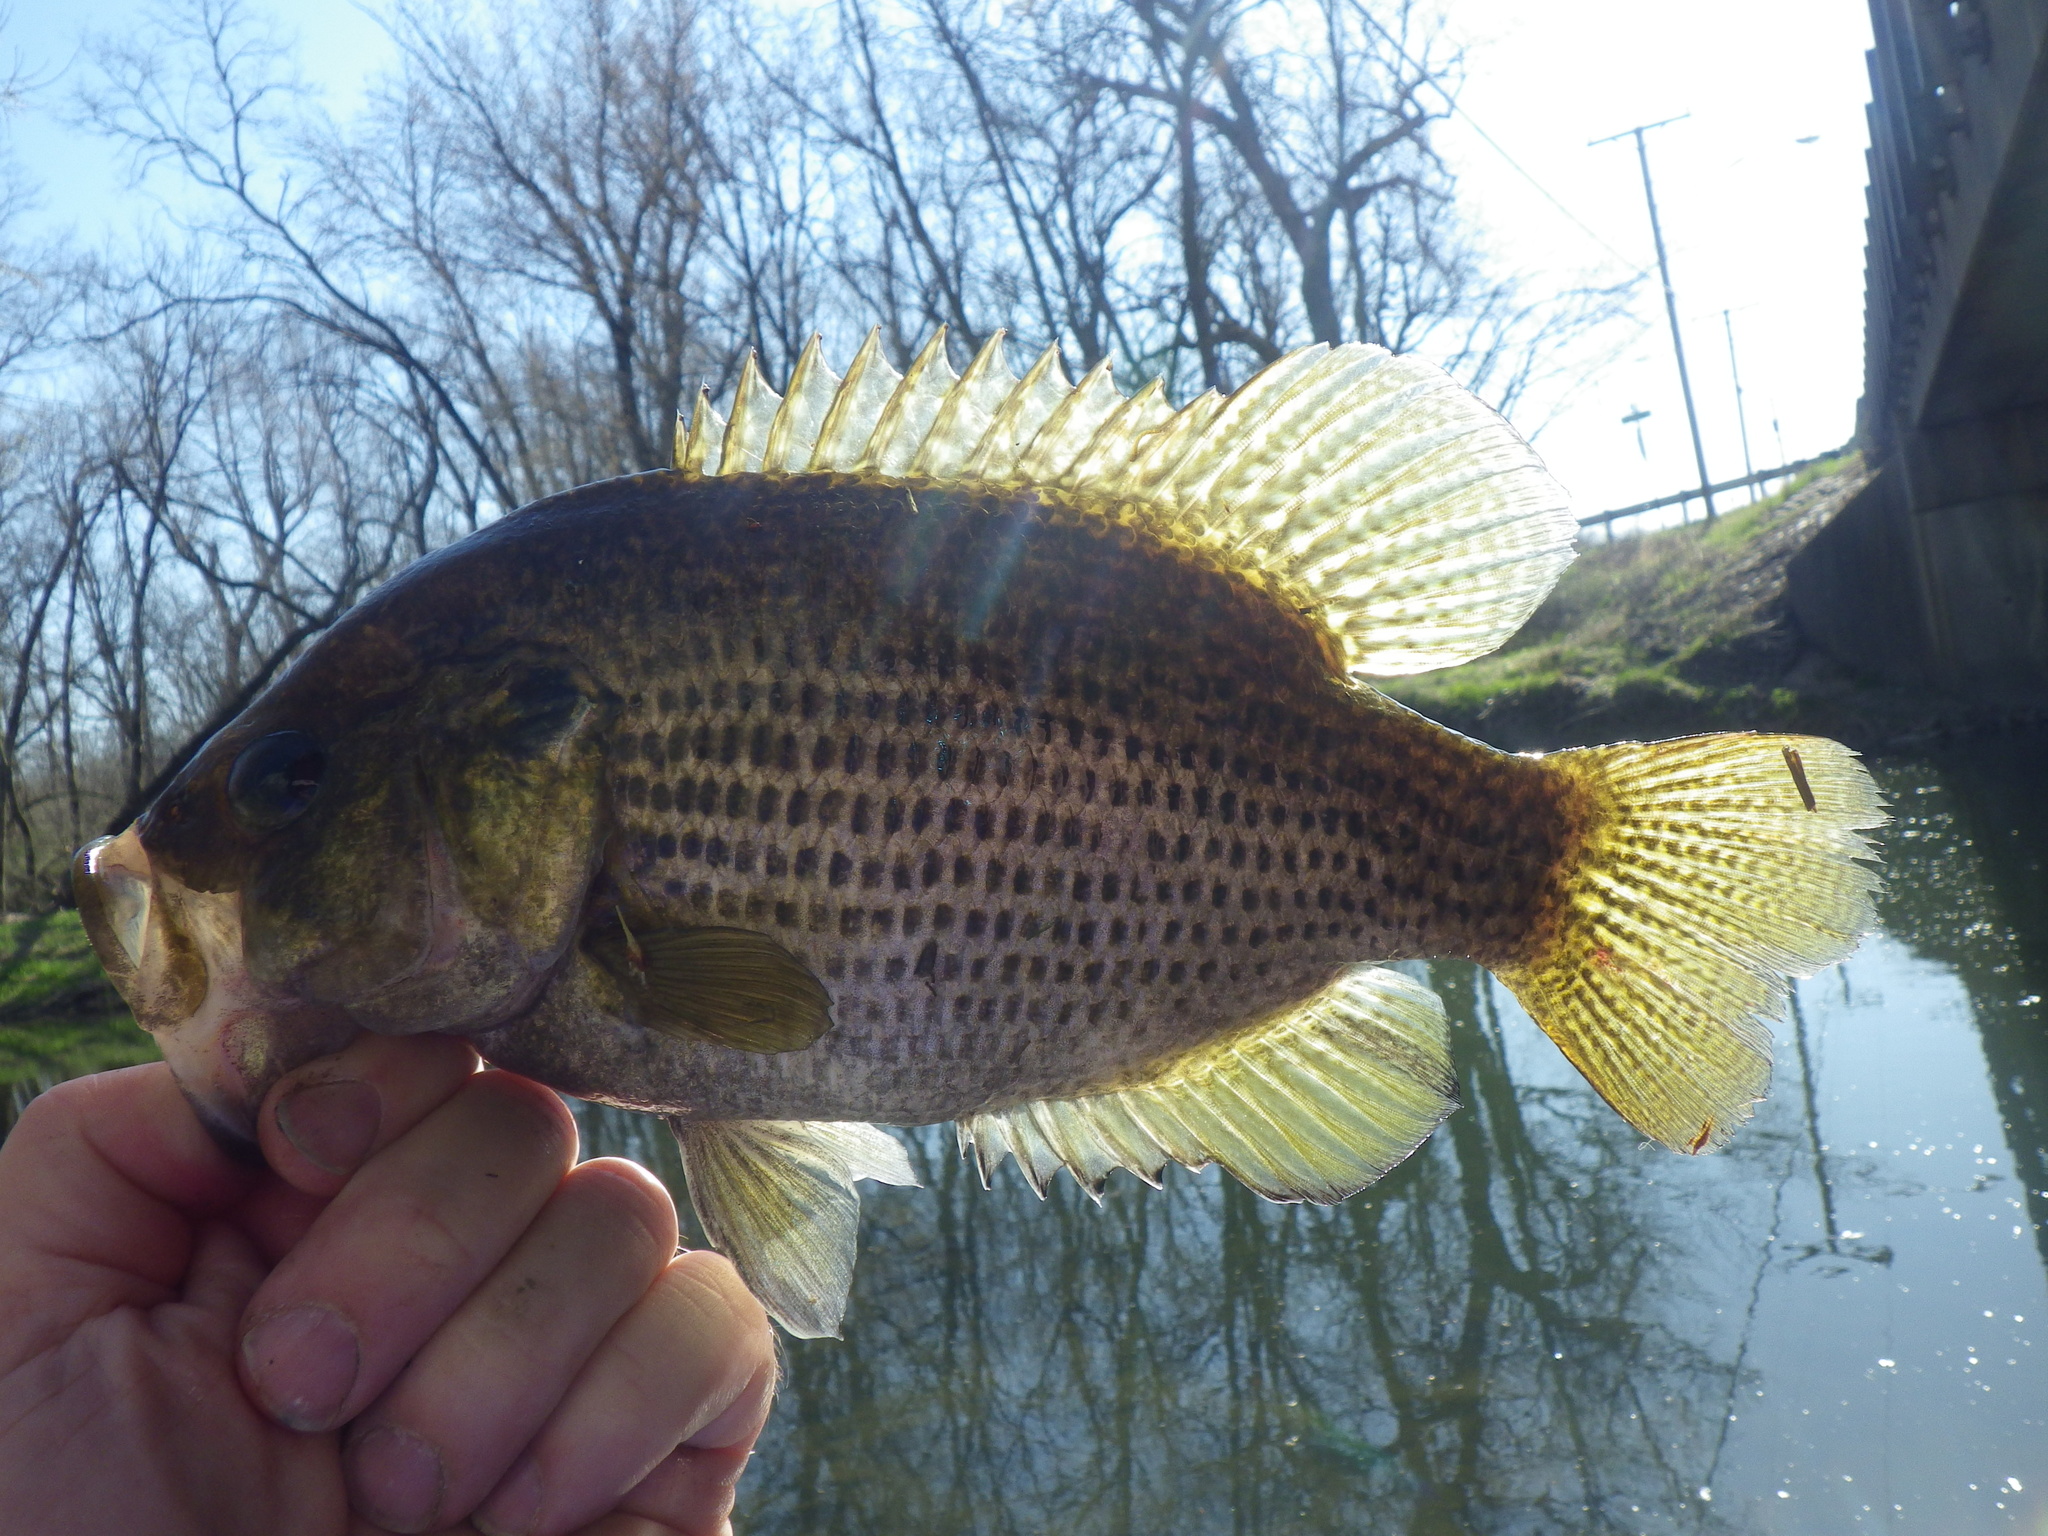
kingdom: Animalia
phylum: Chordata
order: Perciformes
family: Centrarchidae
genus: Ambloplites
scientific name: Ambloplites rupestris
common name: Rock bass
